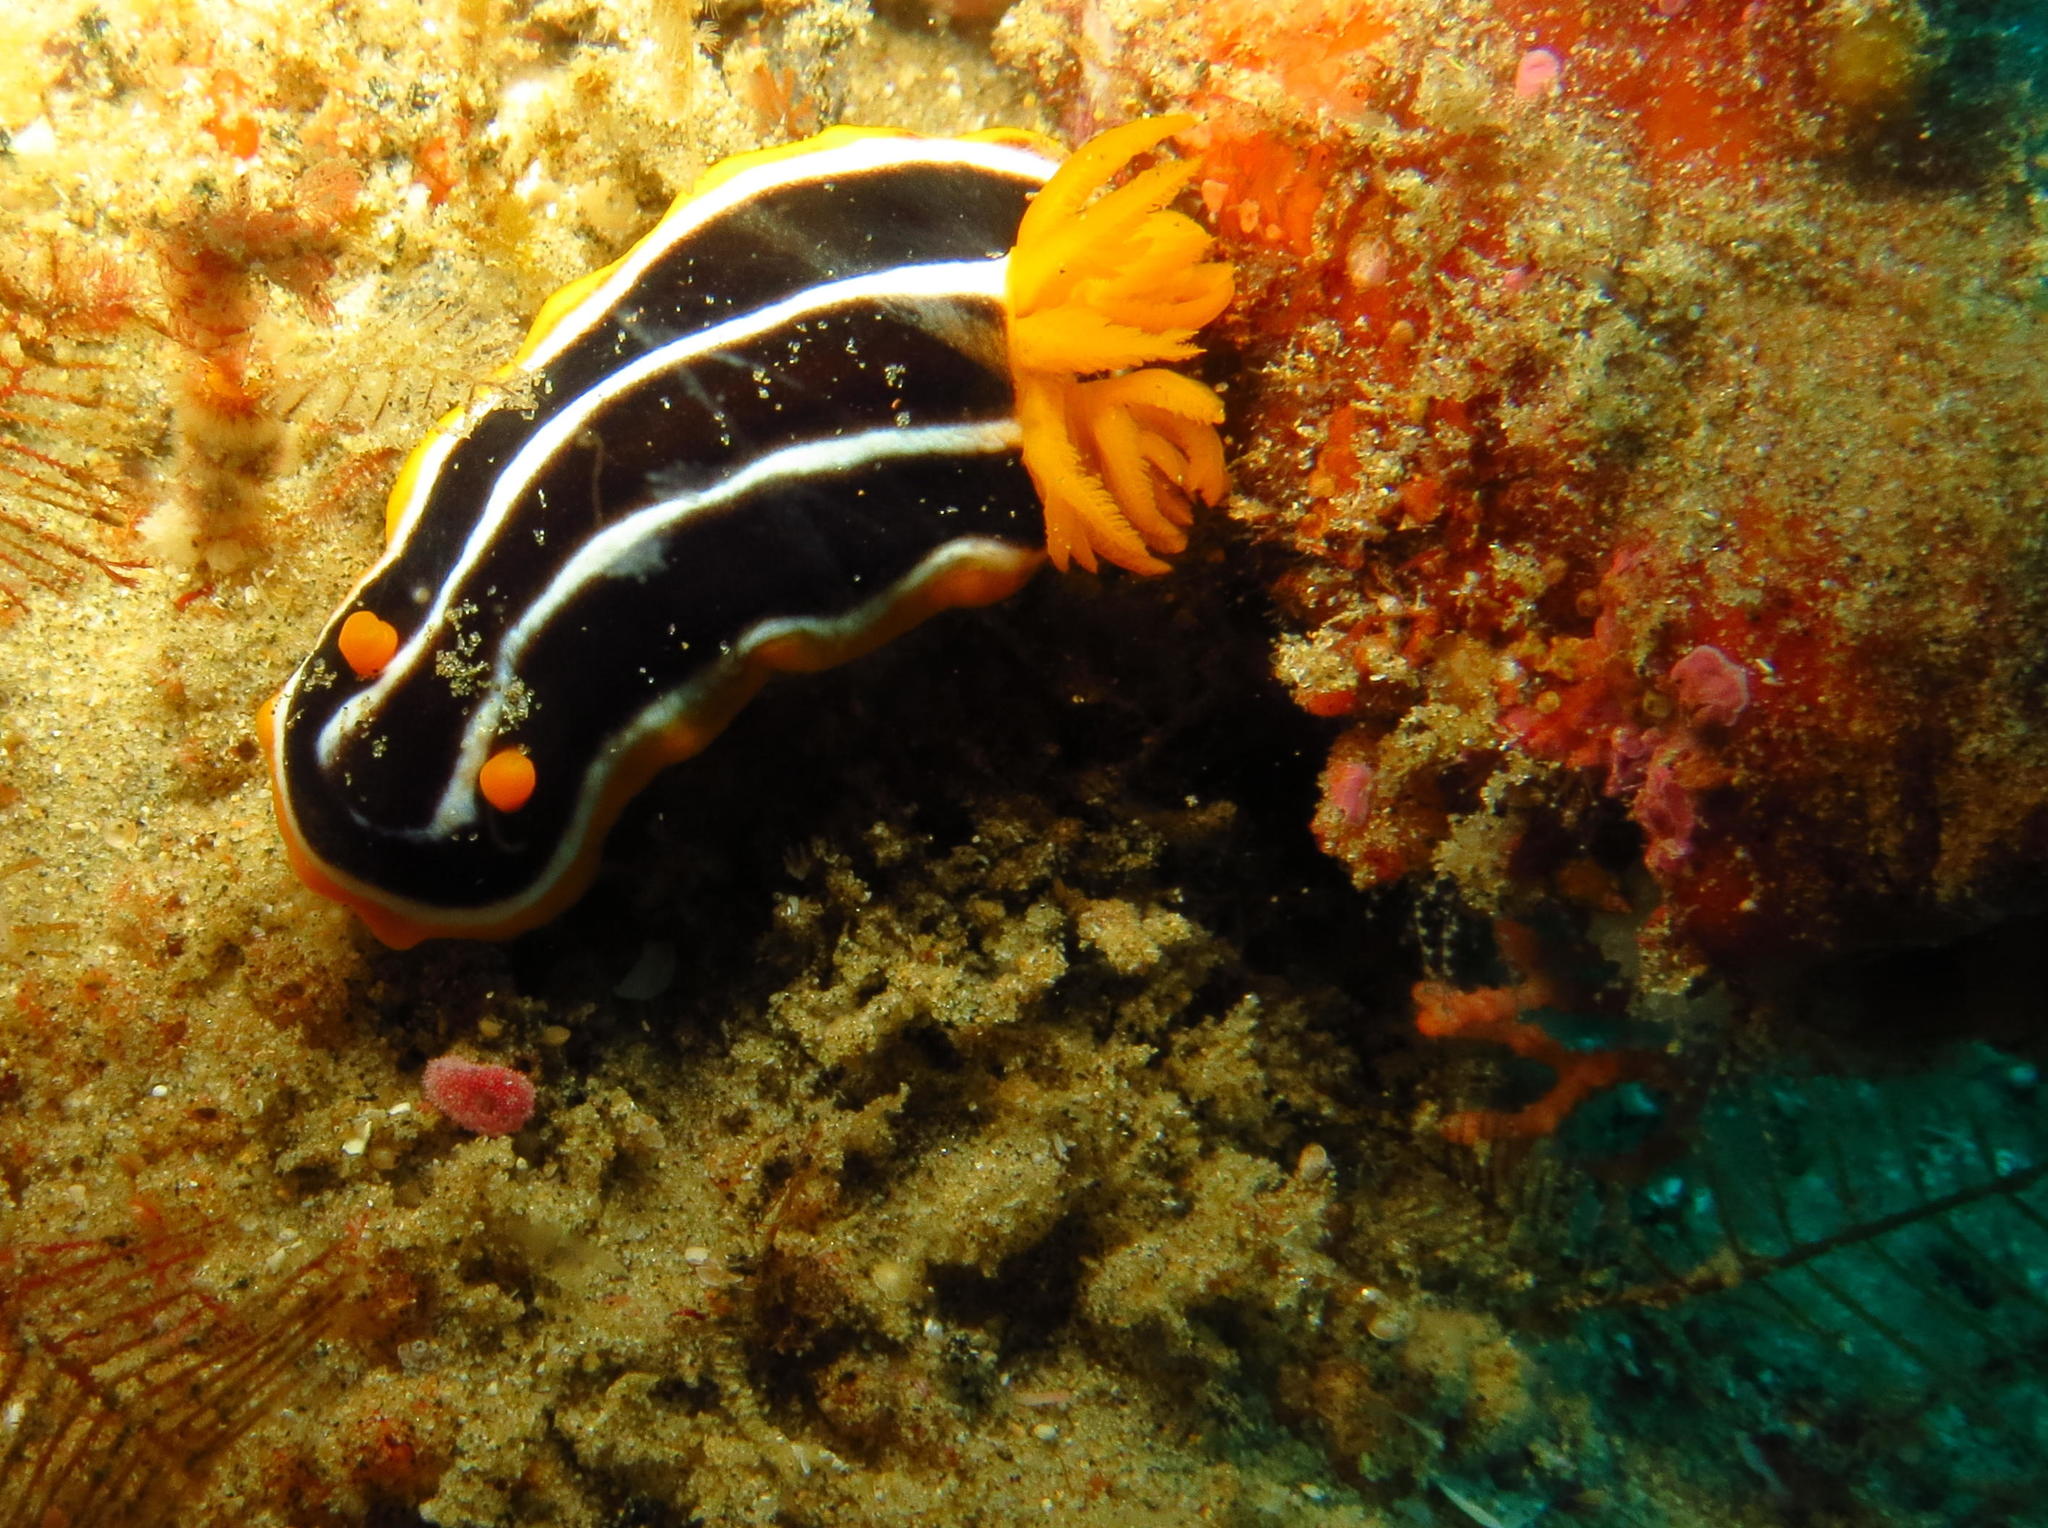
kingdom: Animalia
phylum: Mollusca
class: Gastropoda
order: Nudibranchia
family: Chromodorididae
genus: Chromodoris
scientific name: Chromodoris africana
